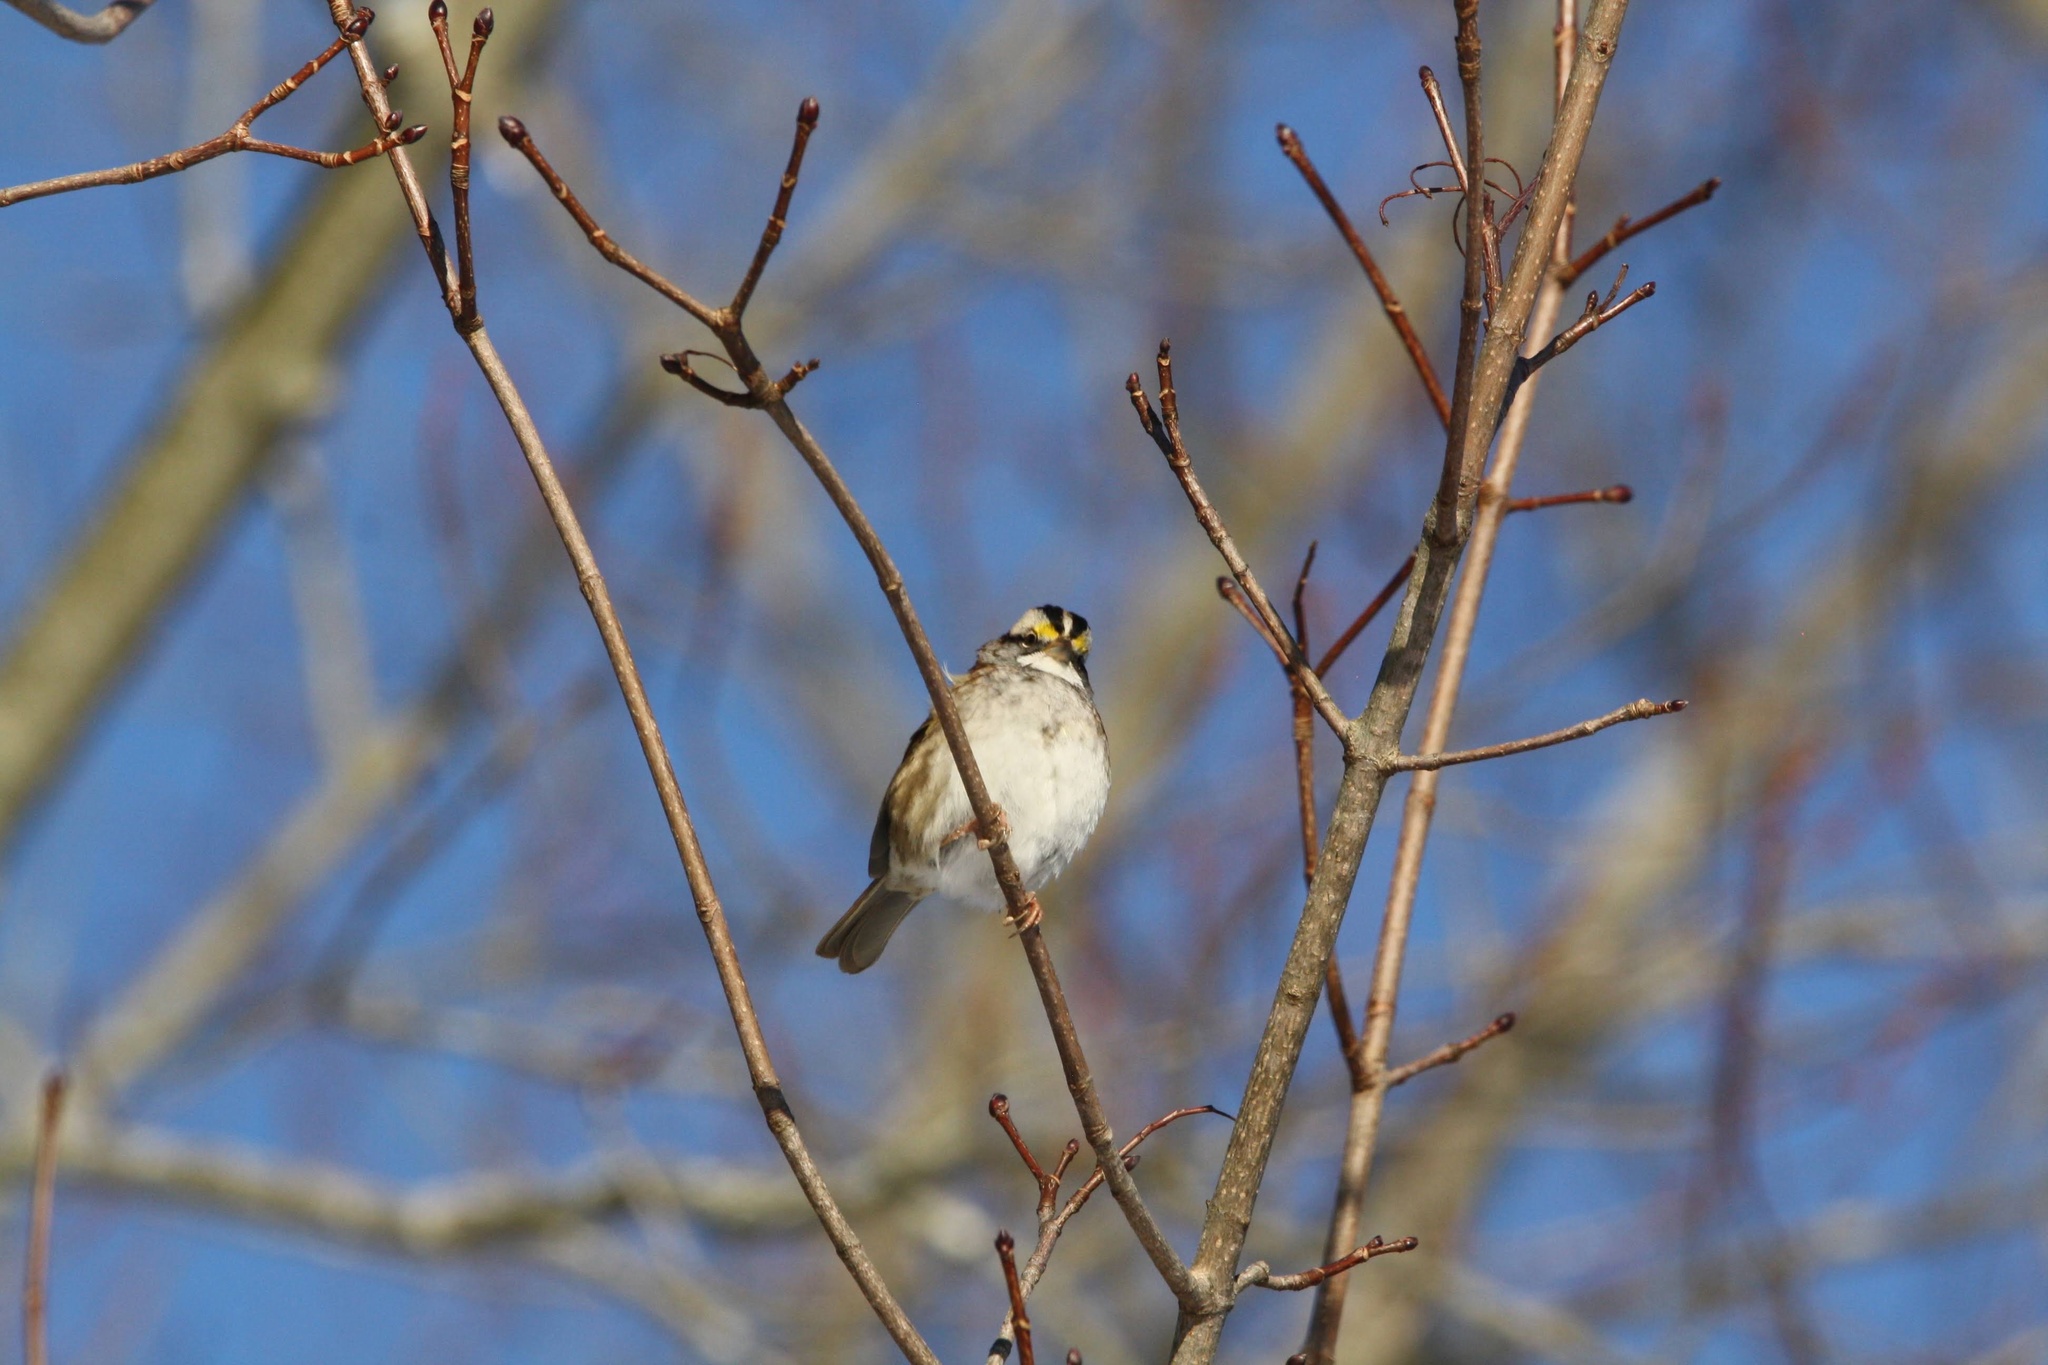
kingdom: Animalia
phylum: Chordata
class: Aves
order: Passeriformes
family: Passerellidae
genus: Zonotrichia
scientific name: Zonotrichia albicollis
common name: White-throated sparrow
